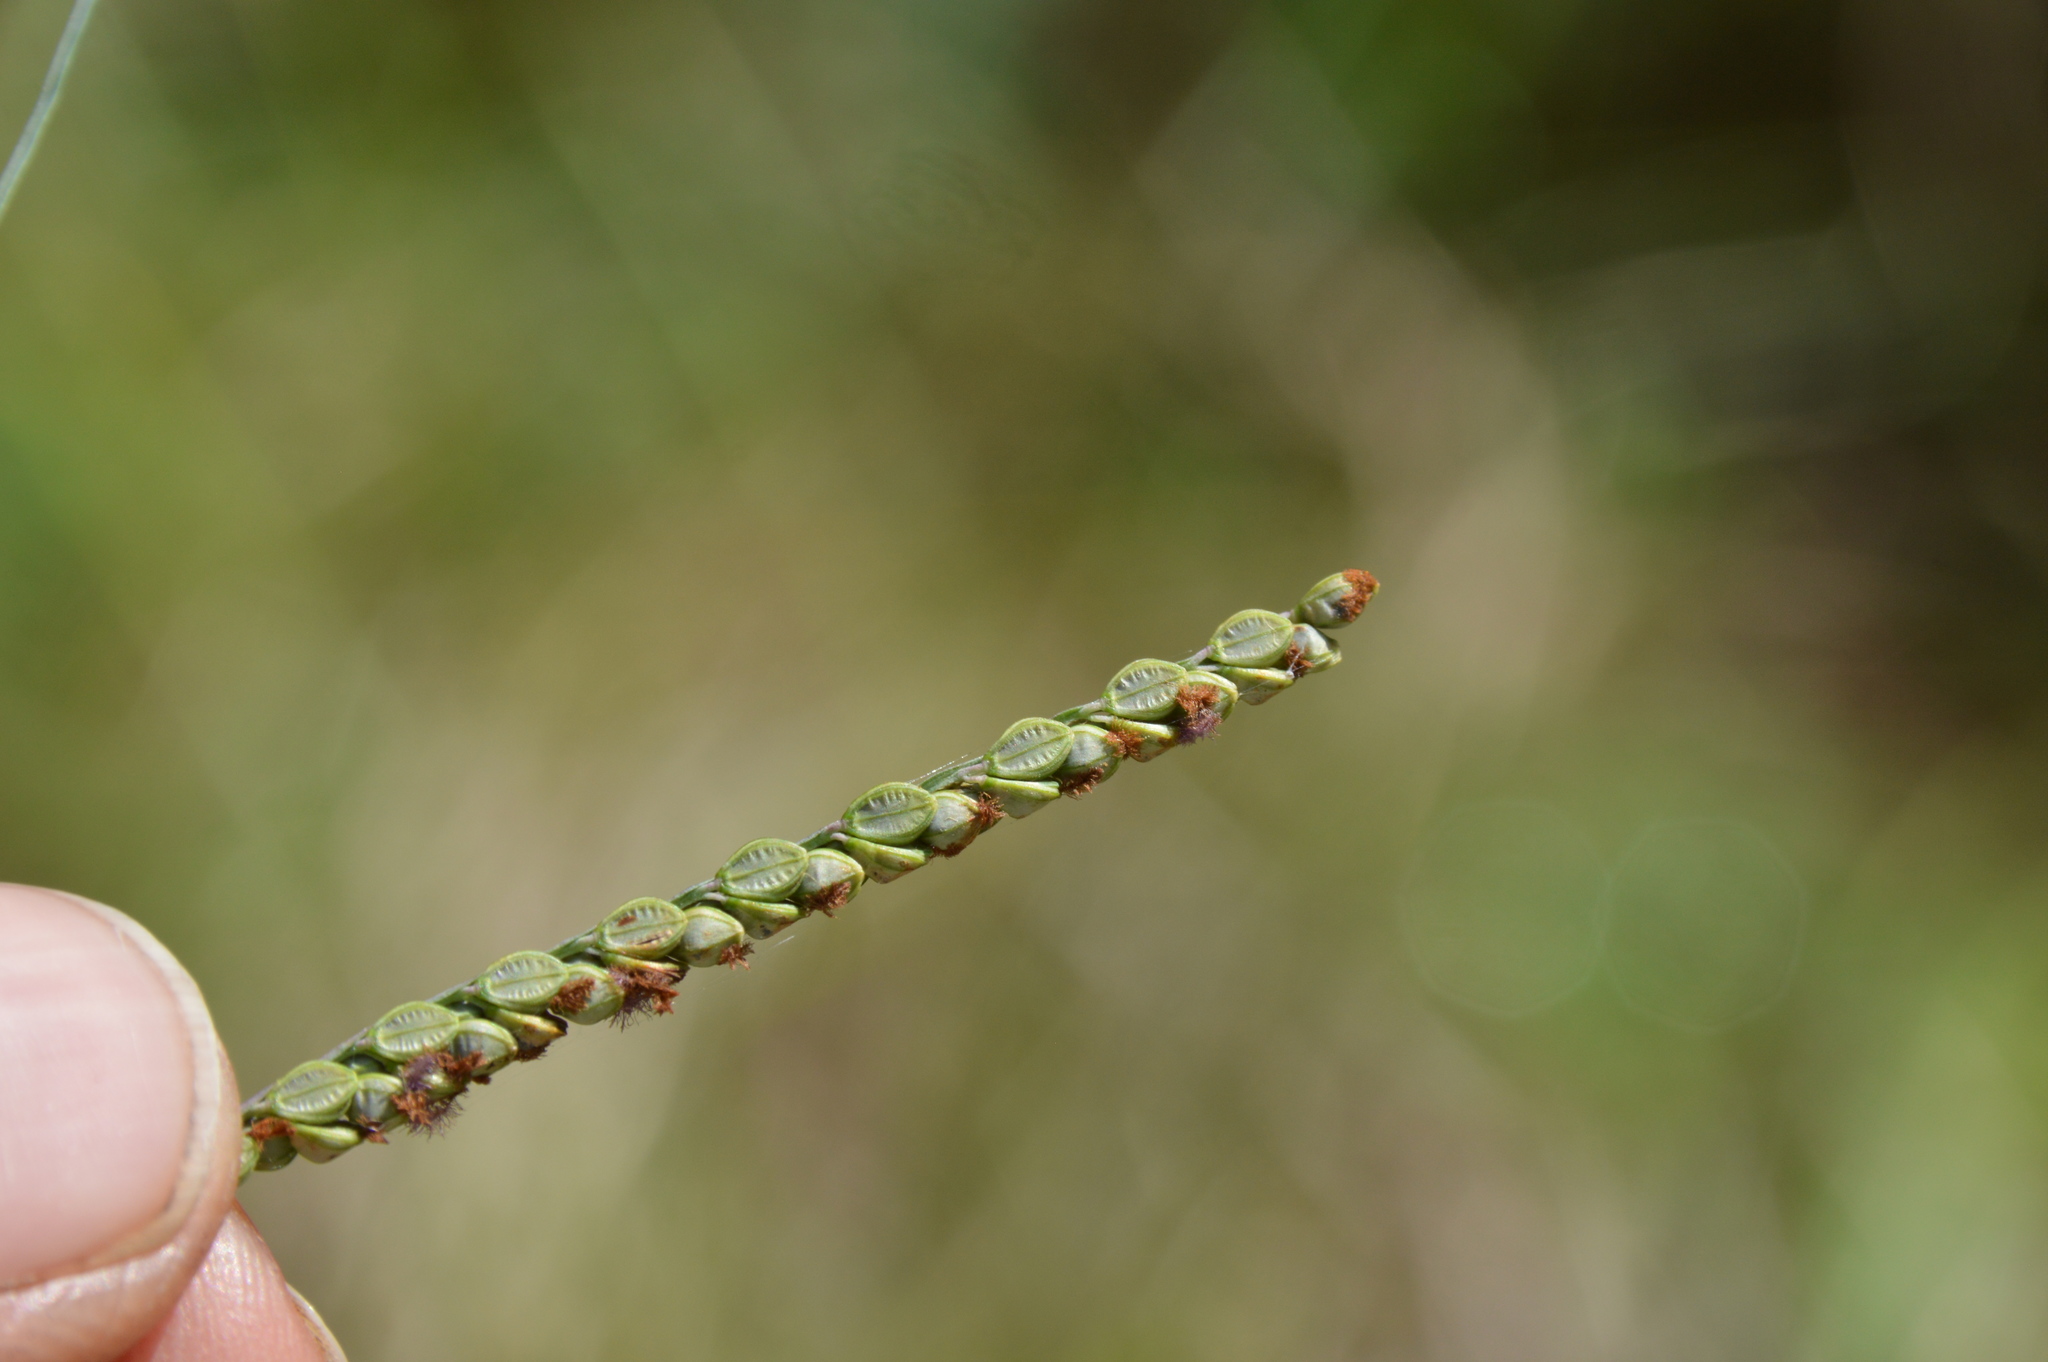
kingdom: Plantae
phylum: Tracheophyta
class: Liliopsida
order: Poales
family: Poaceae
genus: Paspalum
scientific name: Paspalum plicatulum
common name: Top paspalum
